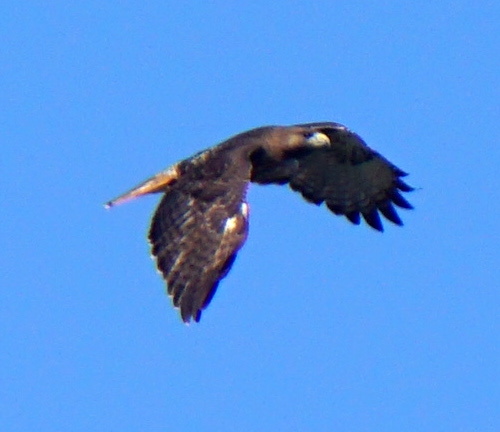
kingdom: Animalia
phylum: Chordata
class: Aves
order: Accipitriformes
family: Accipitridae
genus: Buteo
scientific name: Buteo jamaicensis
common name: Red-tailed hawk
